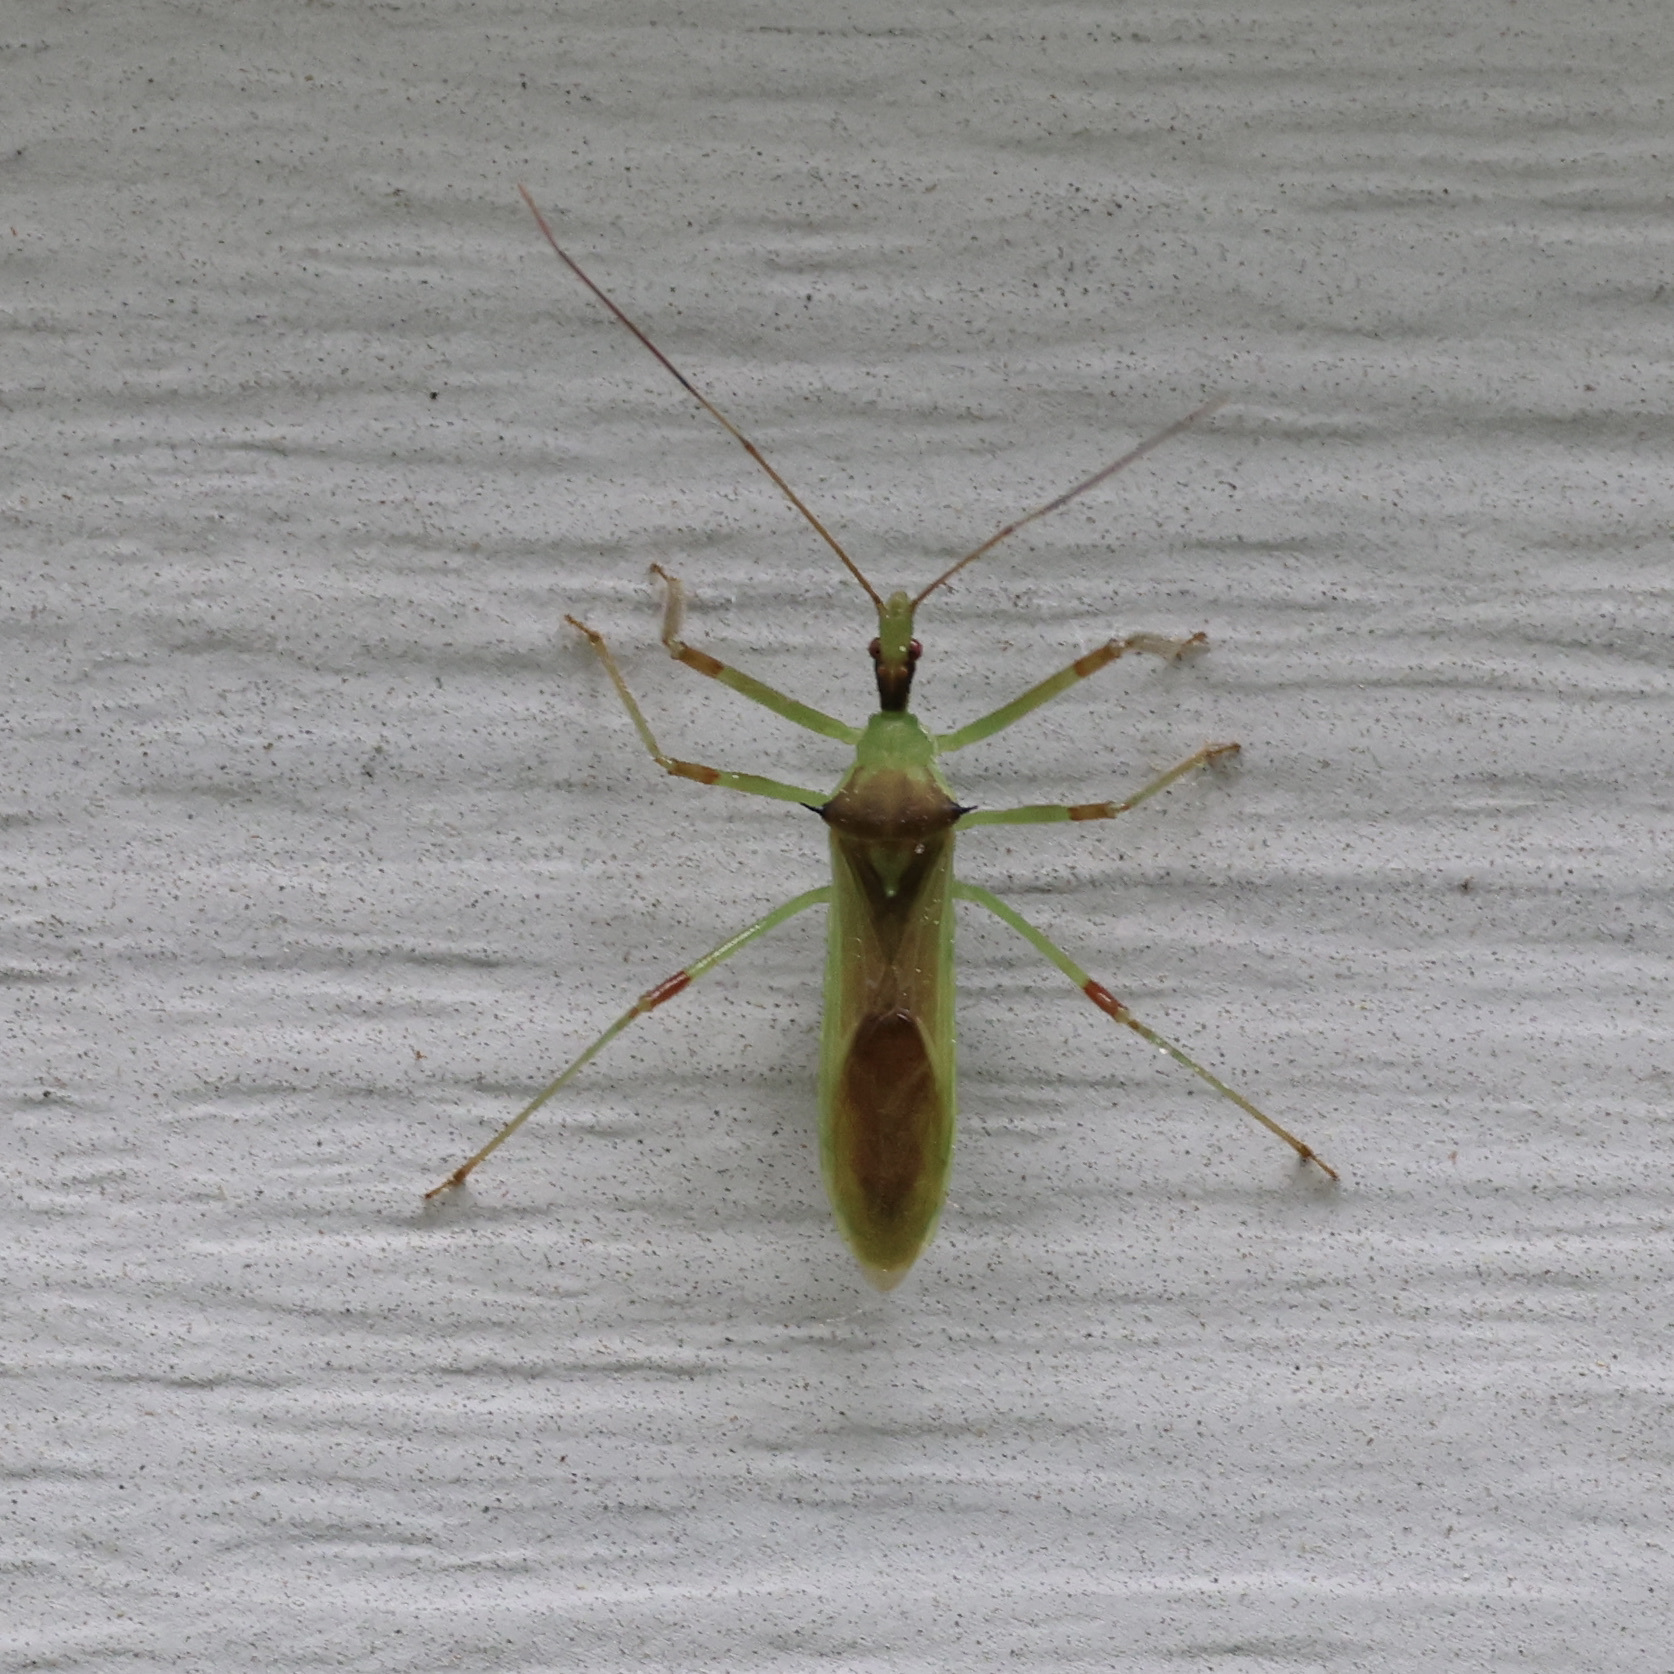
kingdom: Animalia
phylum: Arthropoda
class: Insecta
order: Hemiptera
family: Reduviidae
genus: Zelus
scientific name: Zelus luridus
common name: Pale green assassin bug
